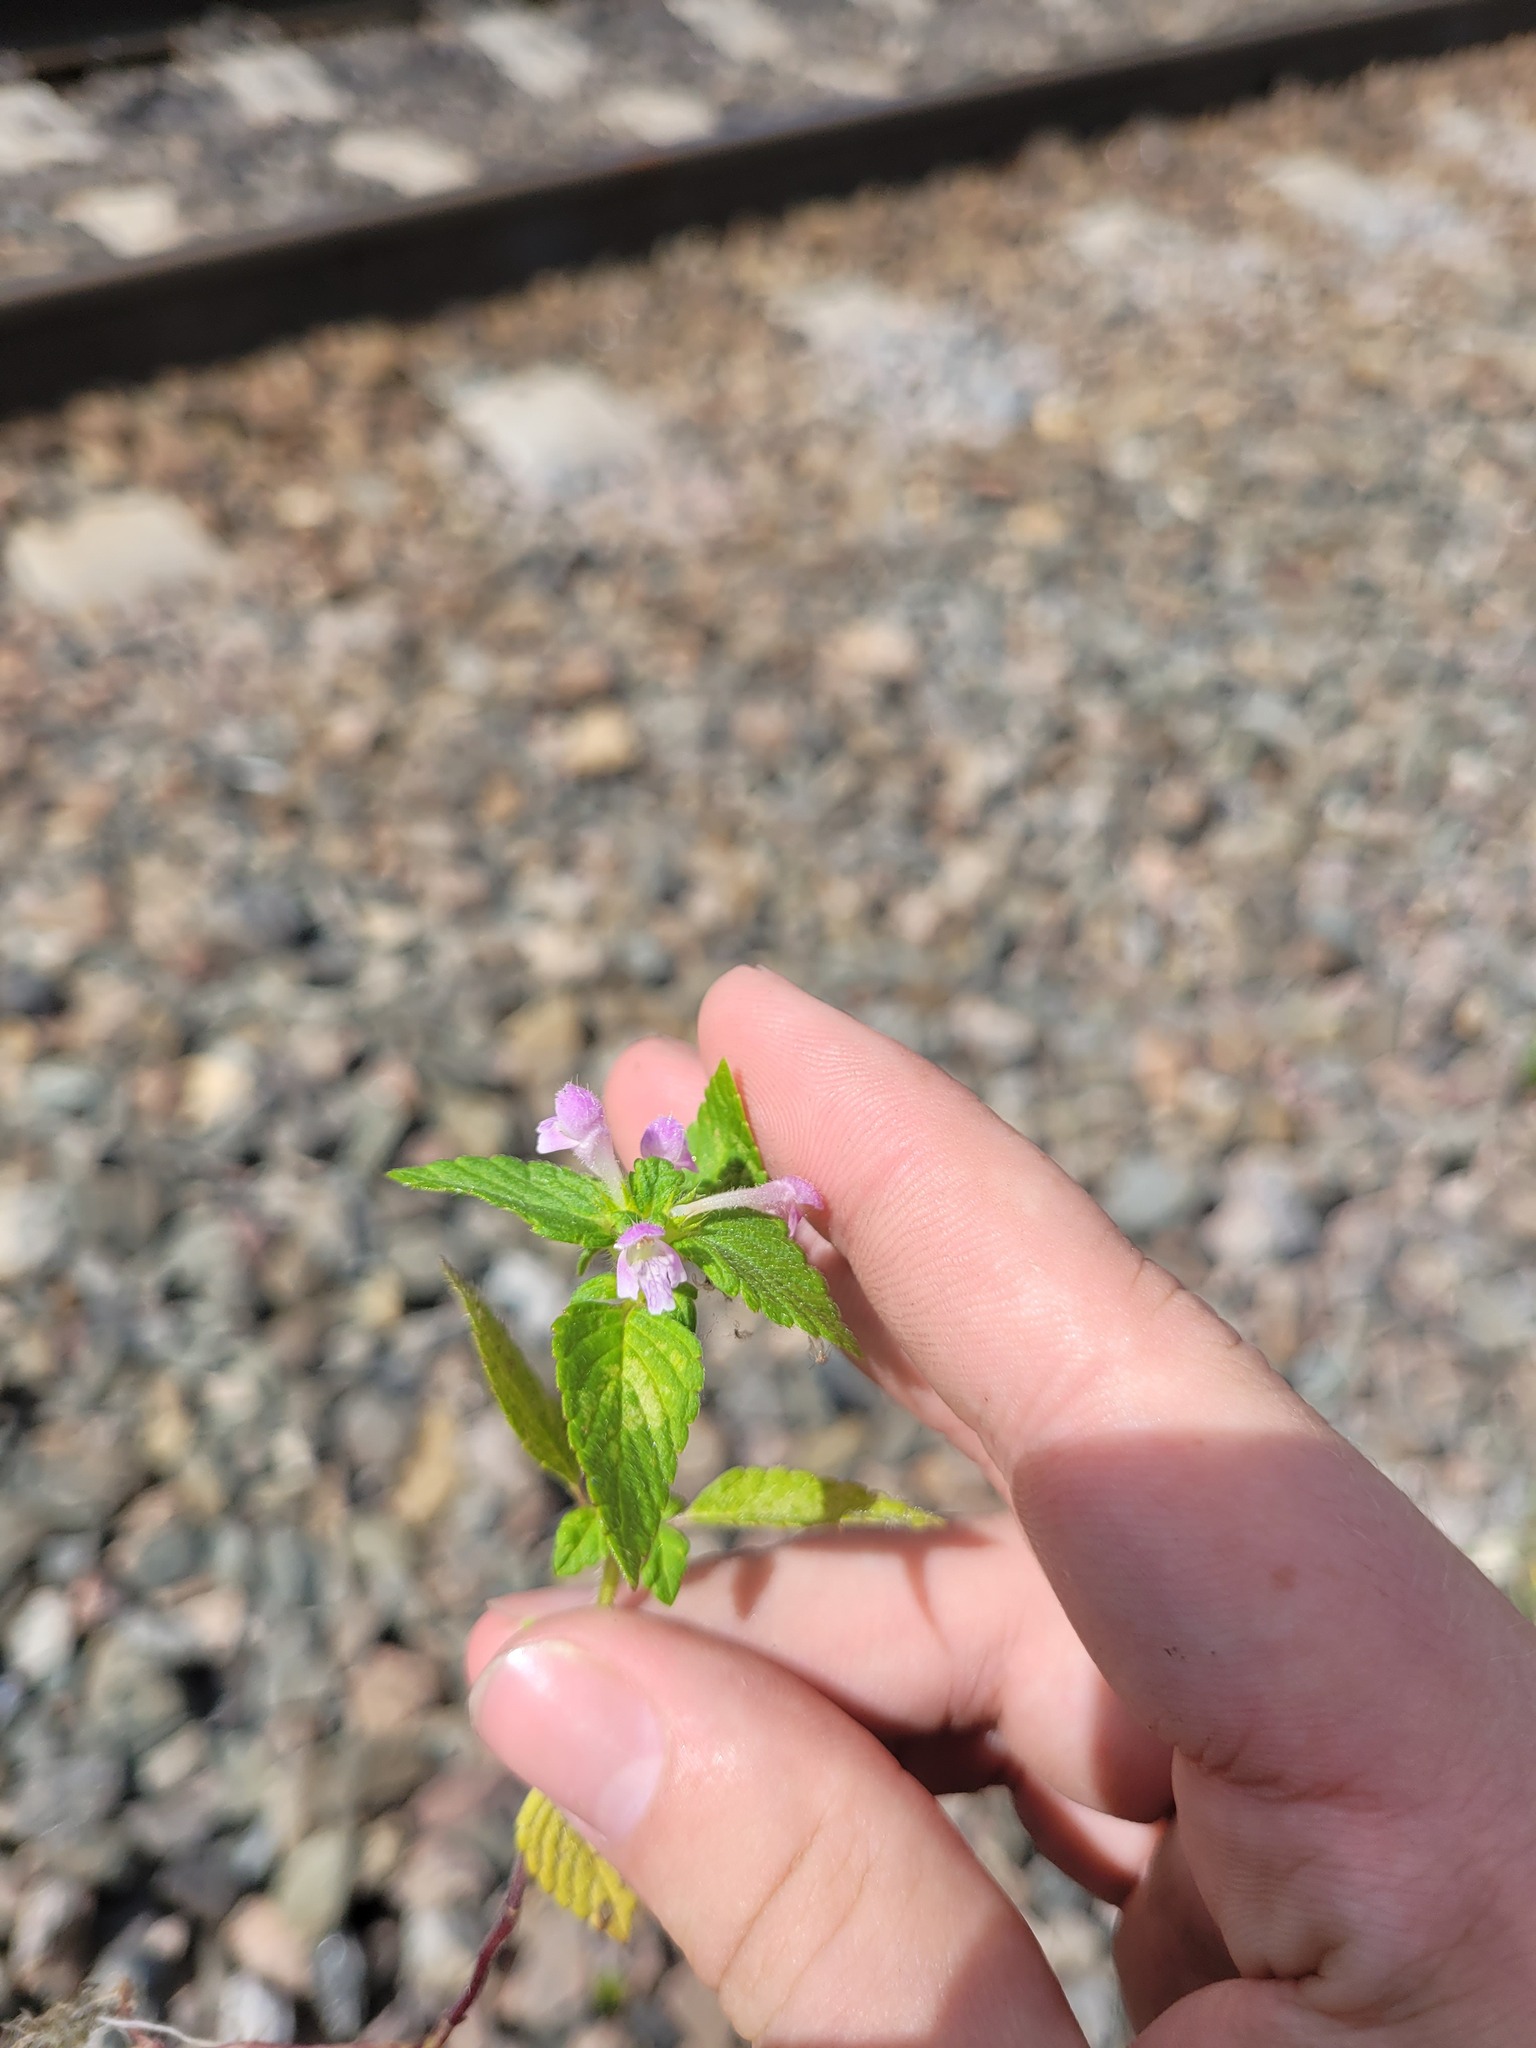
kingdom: Plantae
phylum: Tracheophyta
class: Magnoliopsida
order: Lamiales
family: Lamiaceae
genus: Galeopsis
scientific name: Galeopsis bifida
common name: Bifid hemp-nettle
